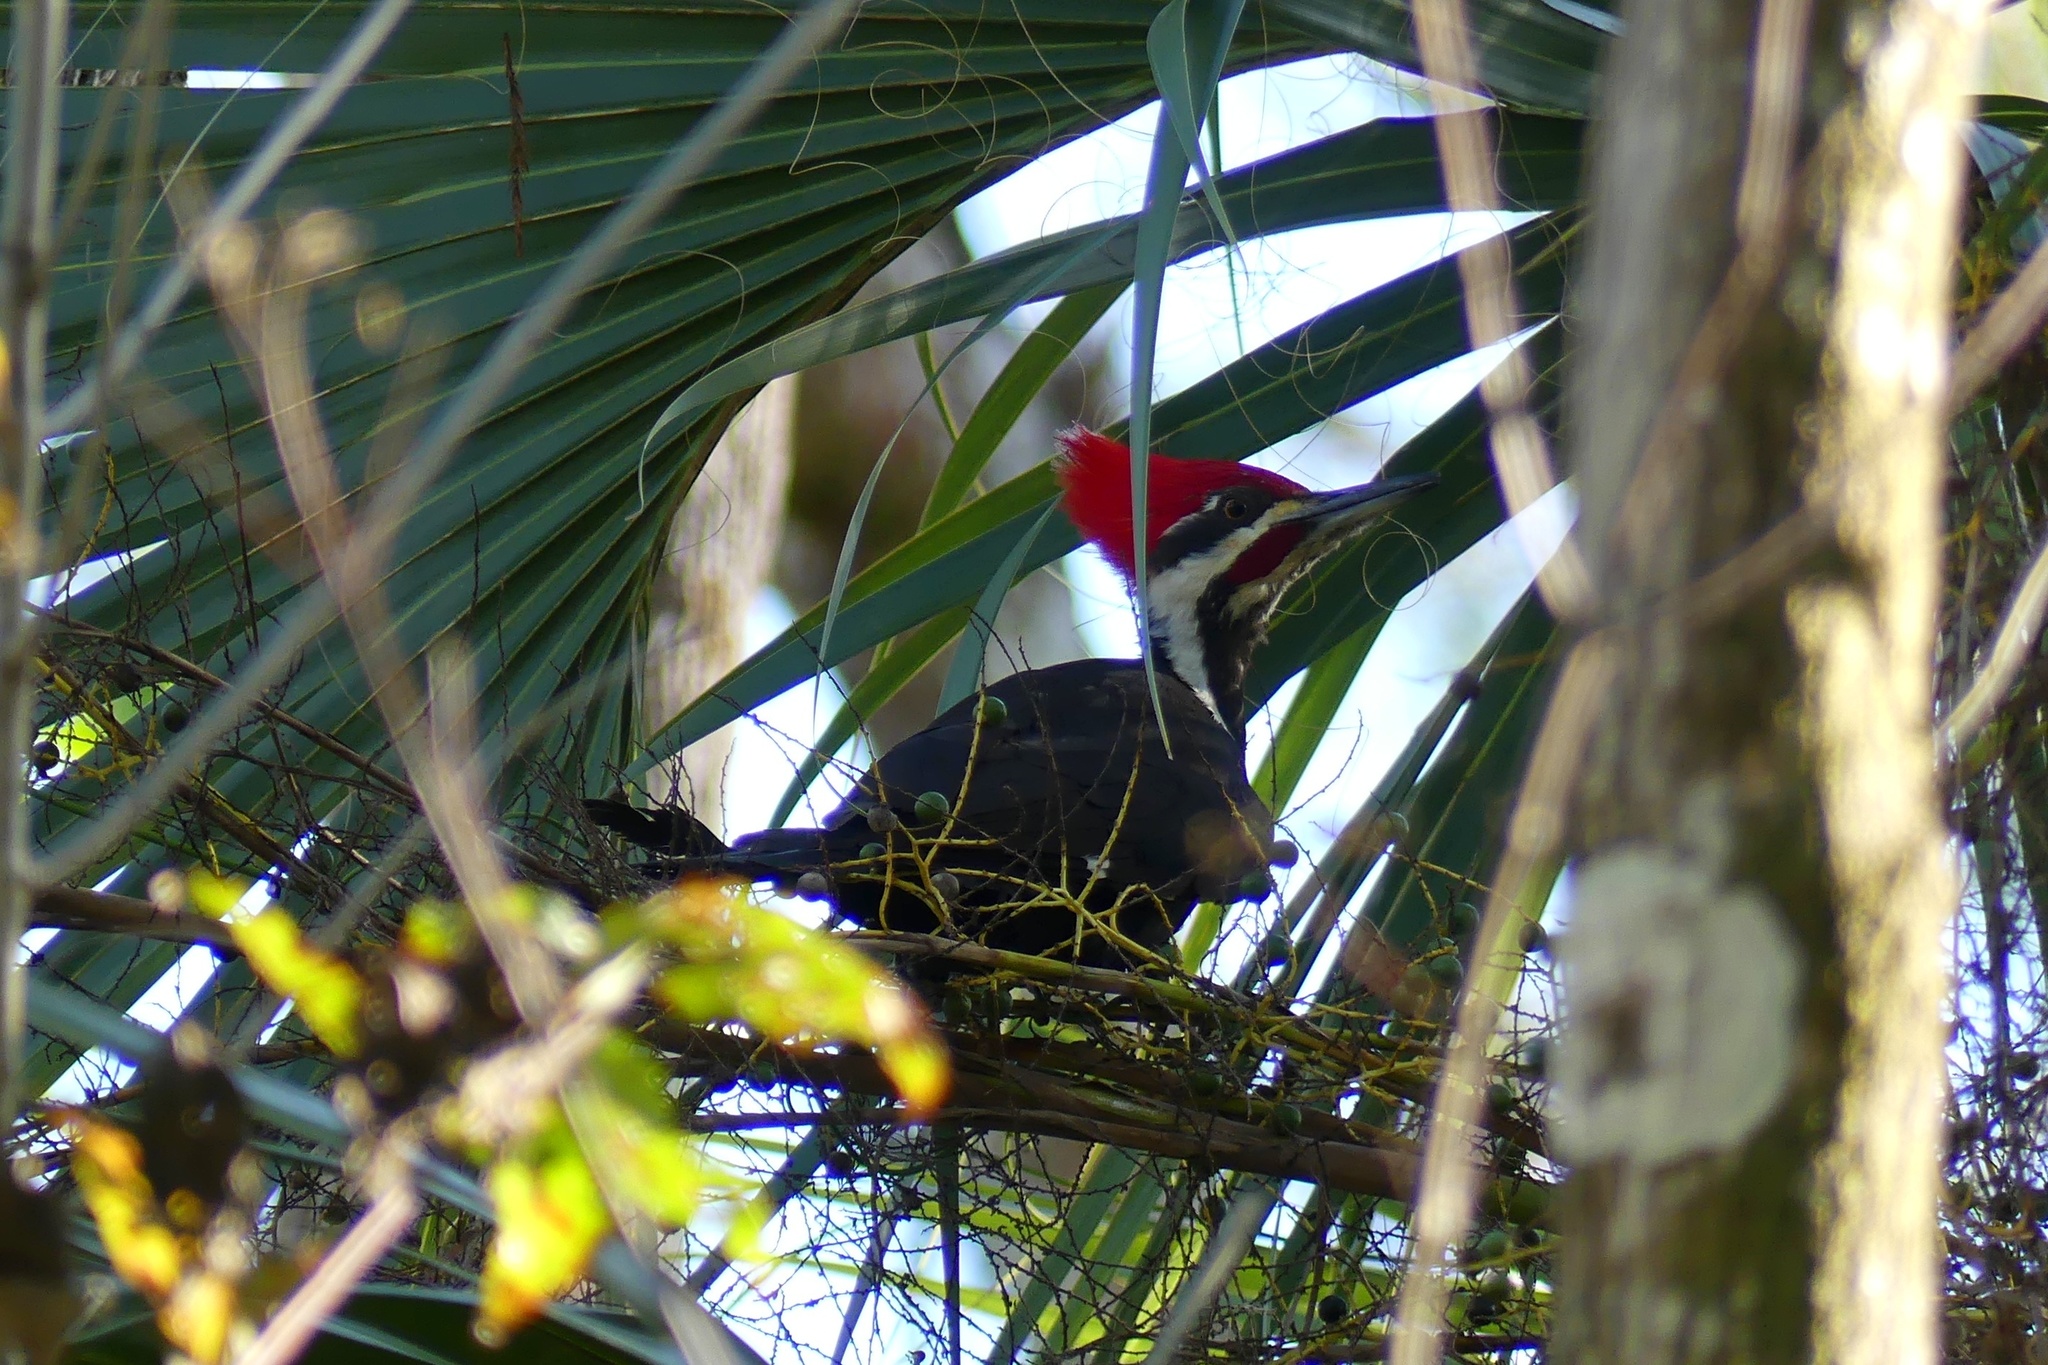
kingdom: Animalia
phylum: Chordata
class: Aves
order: Piciformes
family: Picidae
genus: Dryocopus
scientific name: Dryocopus pileatus
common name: Pileated woodpecker
